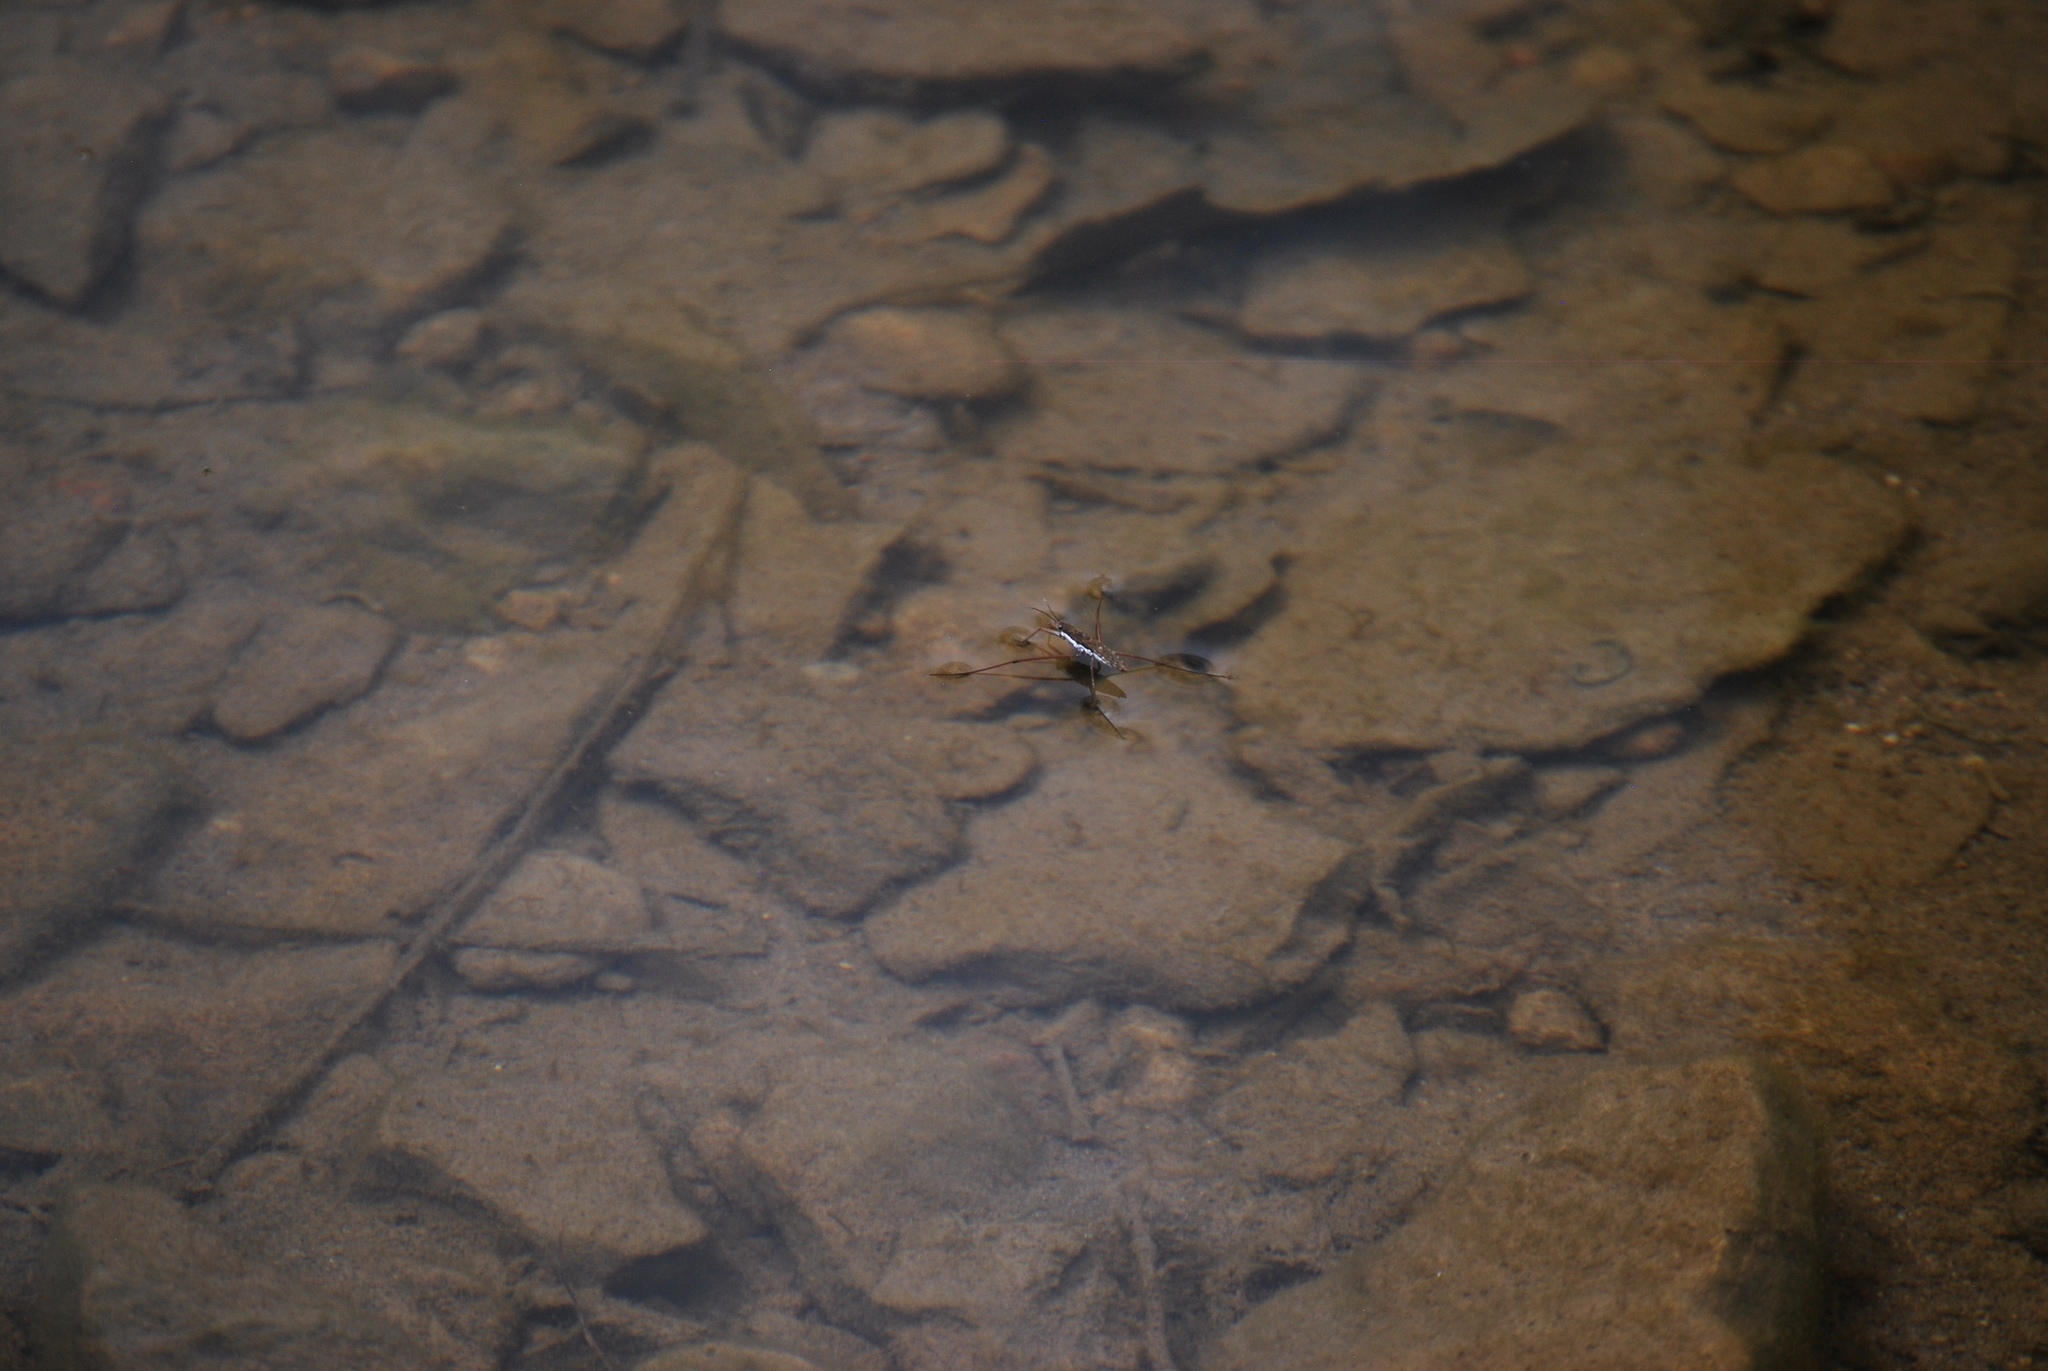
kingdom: Animalia
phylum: Arthropoda
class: Insecta
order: Hemiptera
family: Gerridae
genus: Aquarius
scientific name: Aquarius remigis
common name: Common water strider
